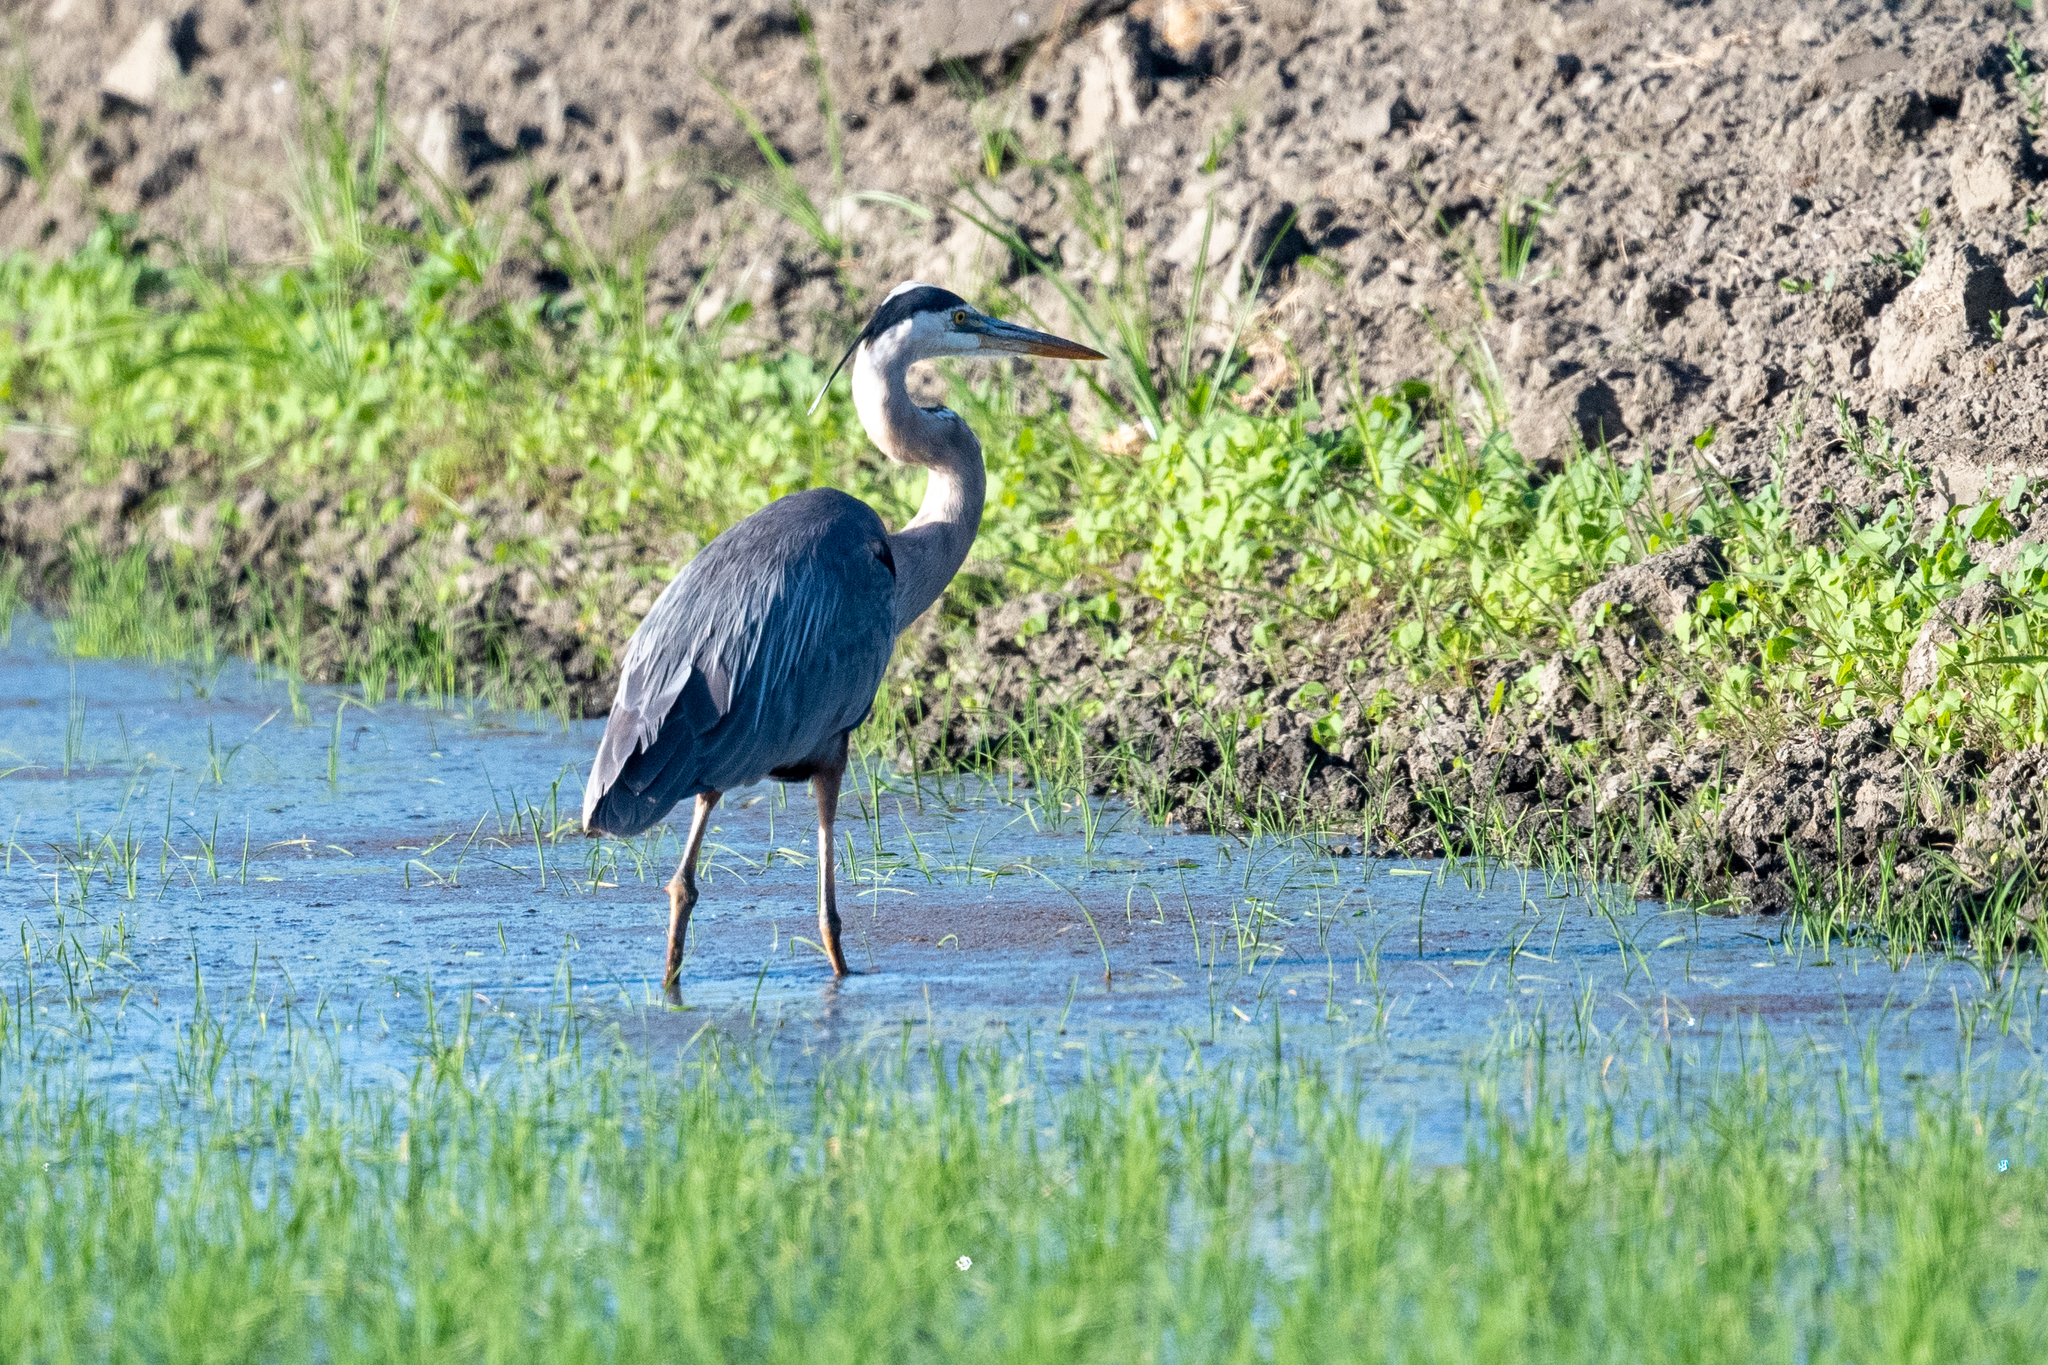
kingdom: Animalia
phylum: Chordata
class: Aves
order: Pelecaniformes
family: Ardeidae
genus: Ardea
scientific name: Ardea herodias
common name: Great blue heron
